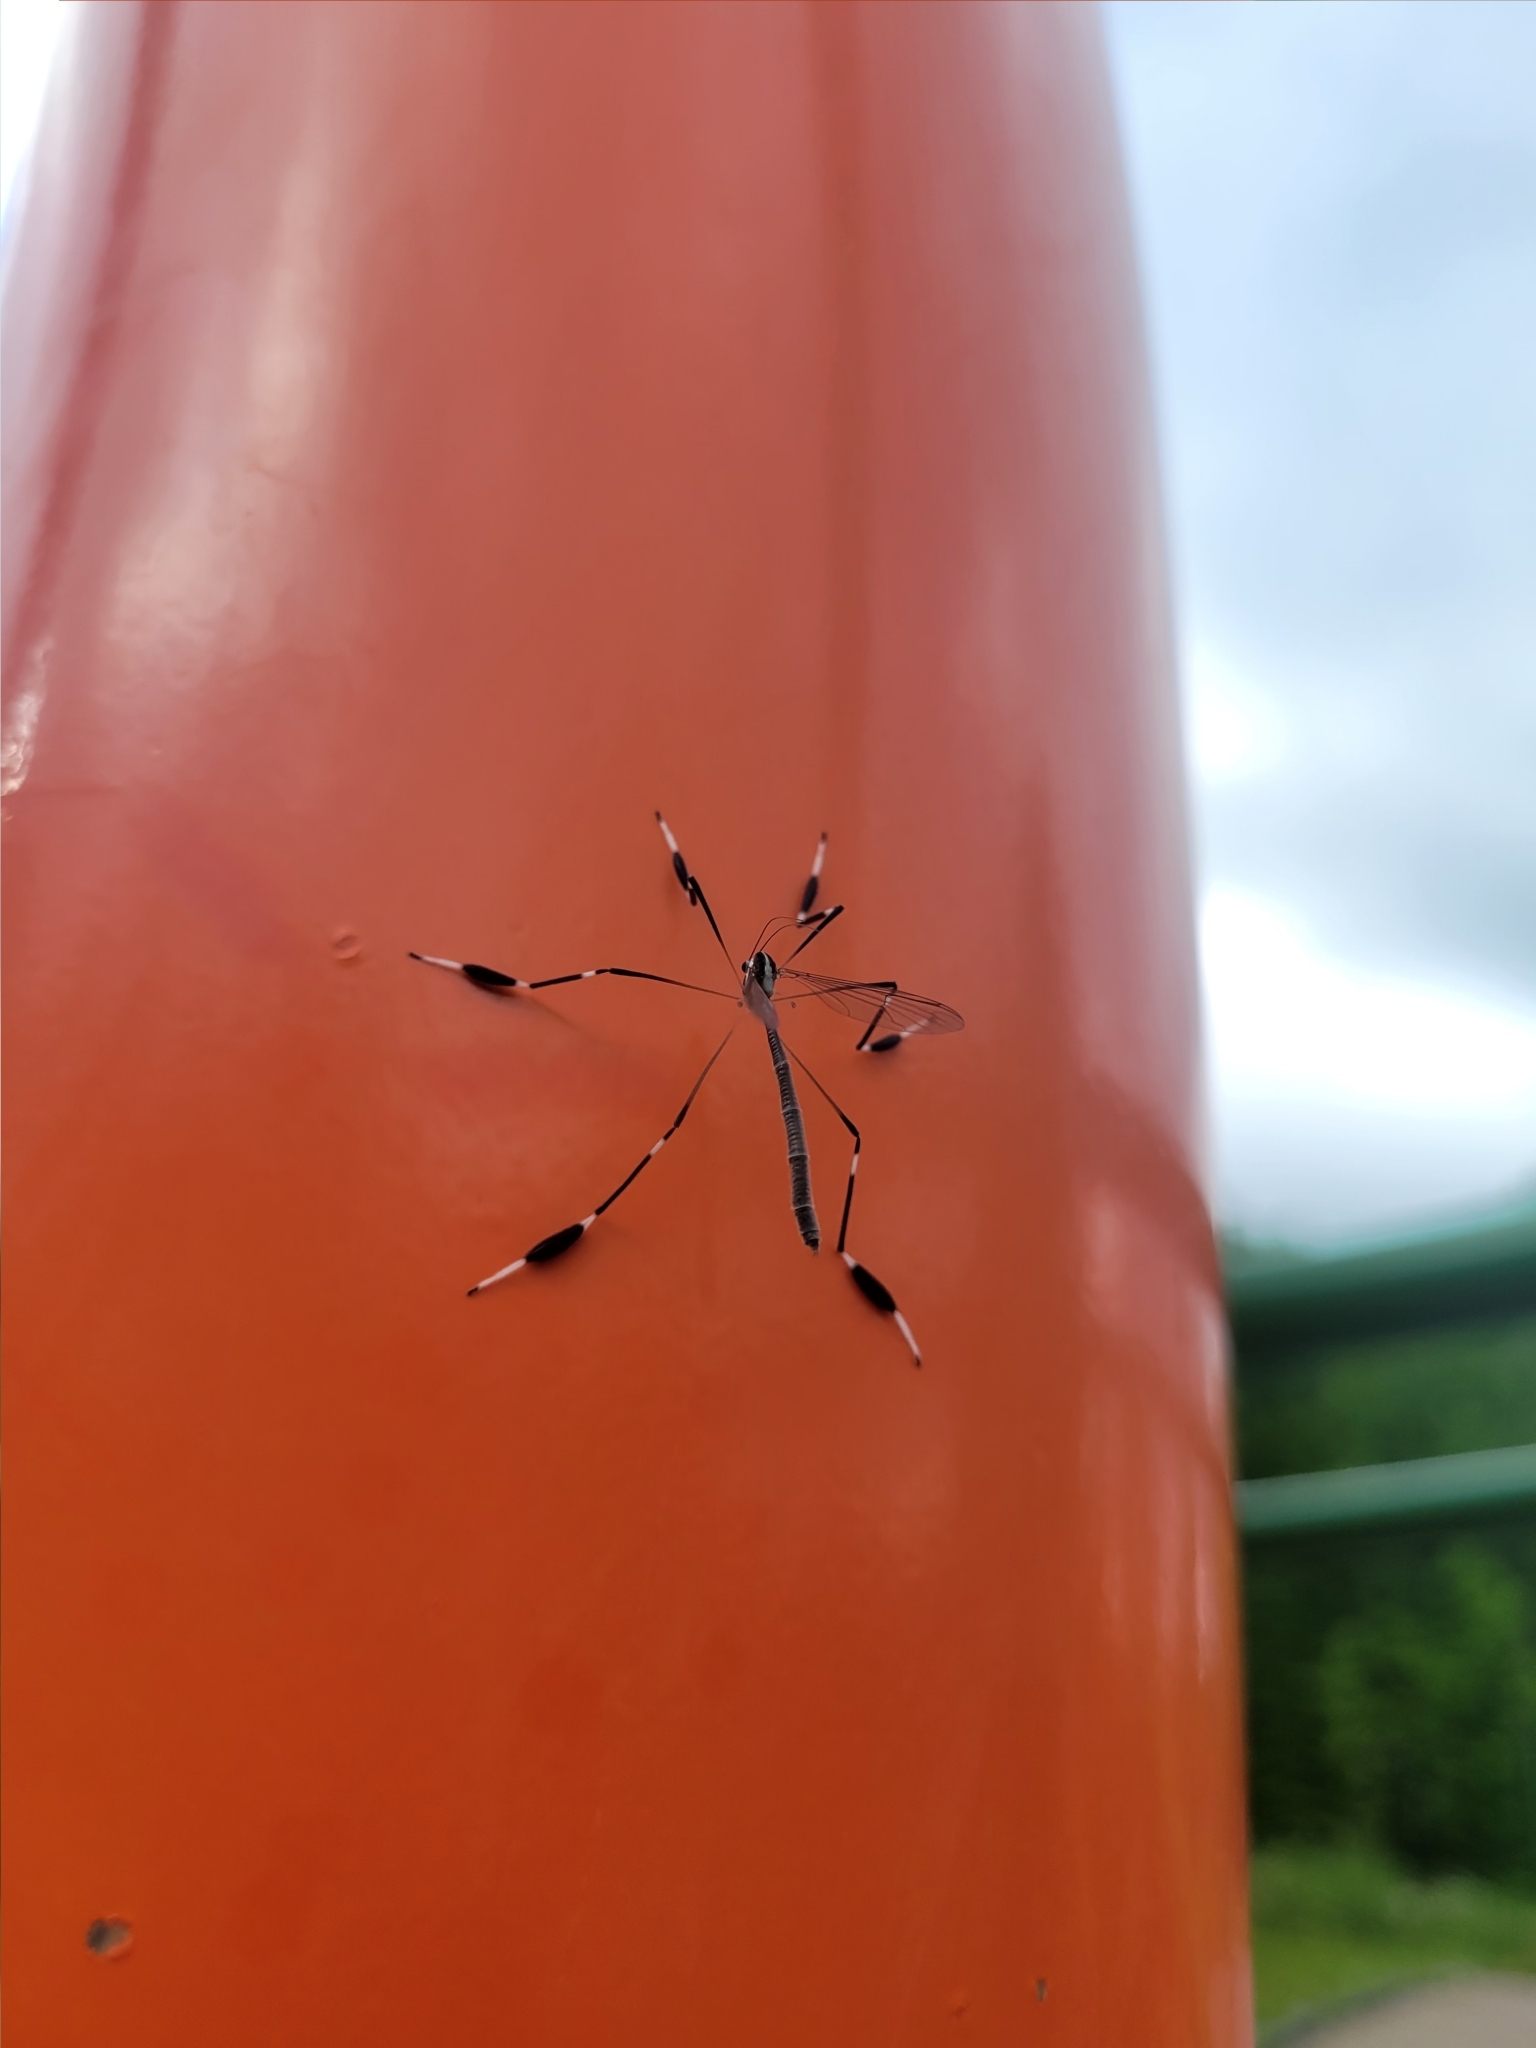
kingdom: Animalia
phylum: Arthropoda
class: Insecta
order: Diptera
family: Ptychopteridae
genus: Bittacomorpha
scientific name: Bittacomorpha clavipes
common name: Eastern phantom crane fly
